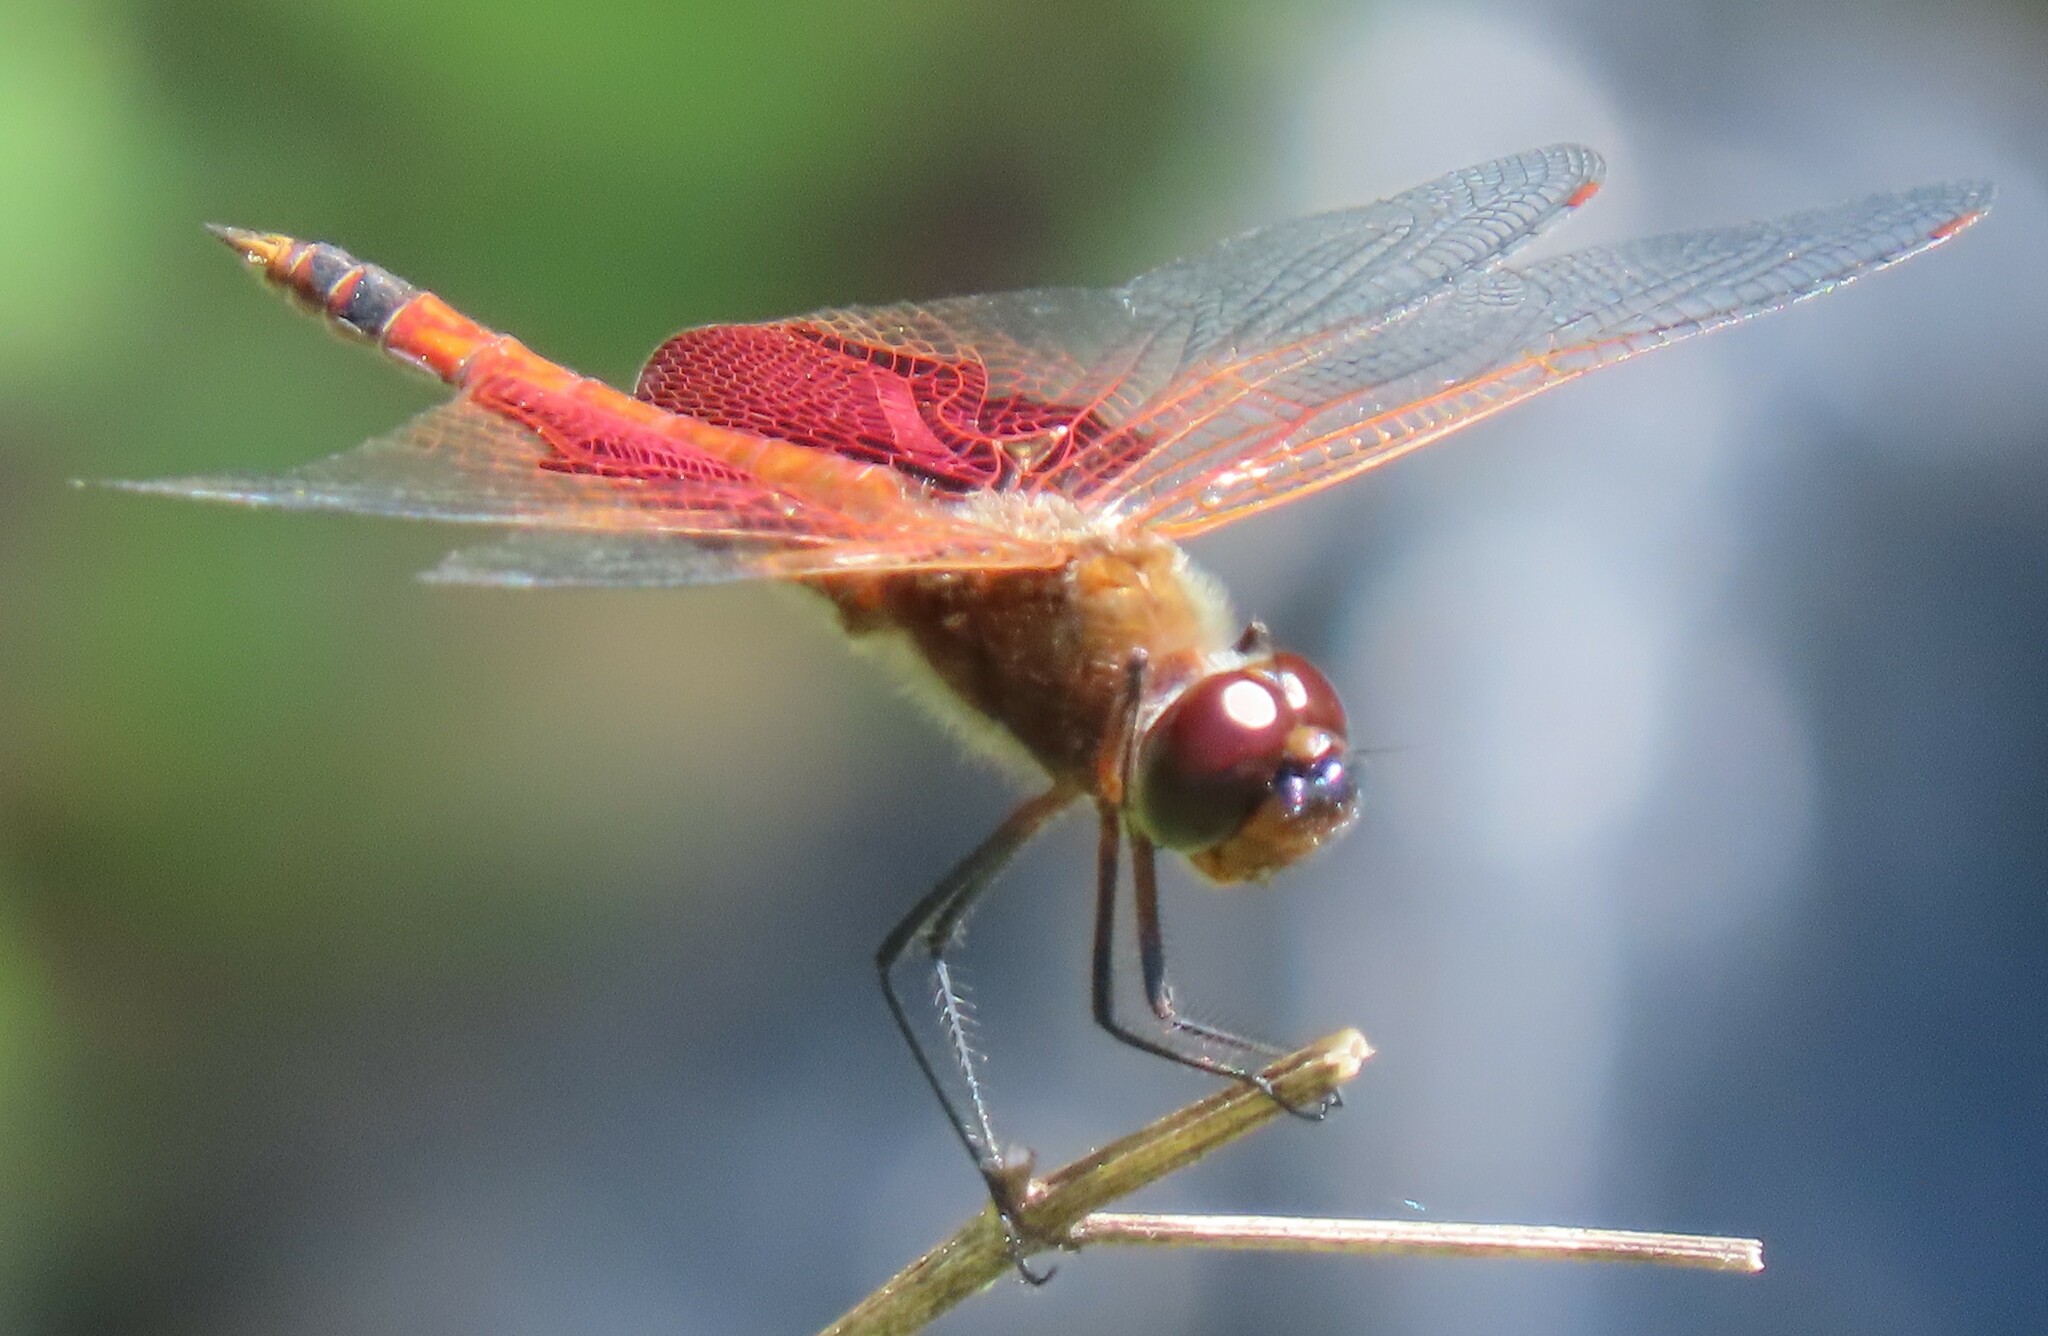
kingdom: Animalia
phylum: Arthropoda
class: Insecta
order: Odonata
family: Libellulidae
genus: Tramea
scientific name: Tramea carolina
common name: Carolina saddlebags
